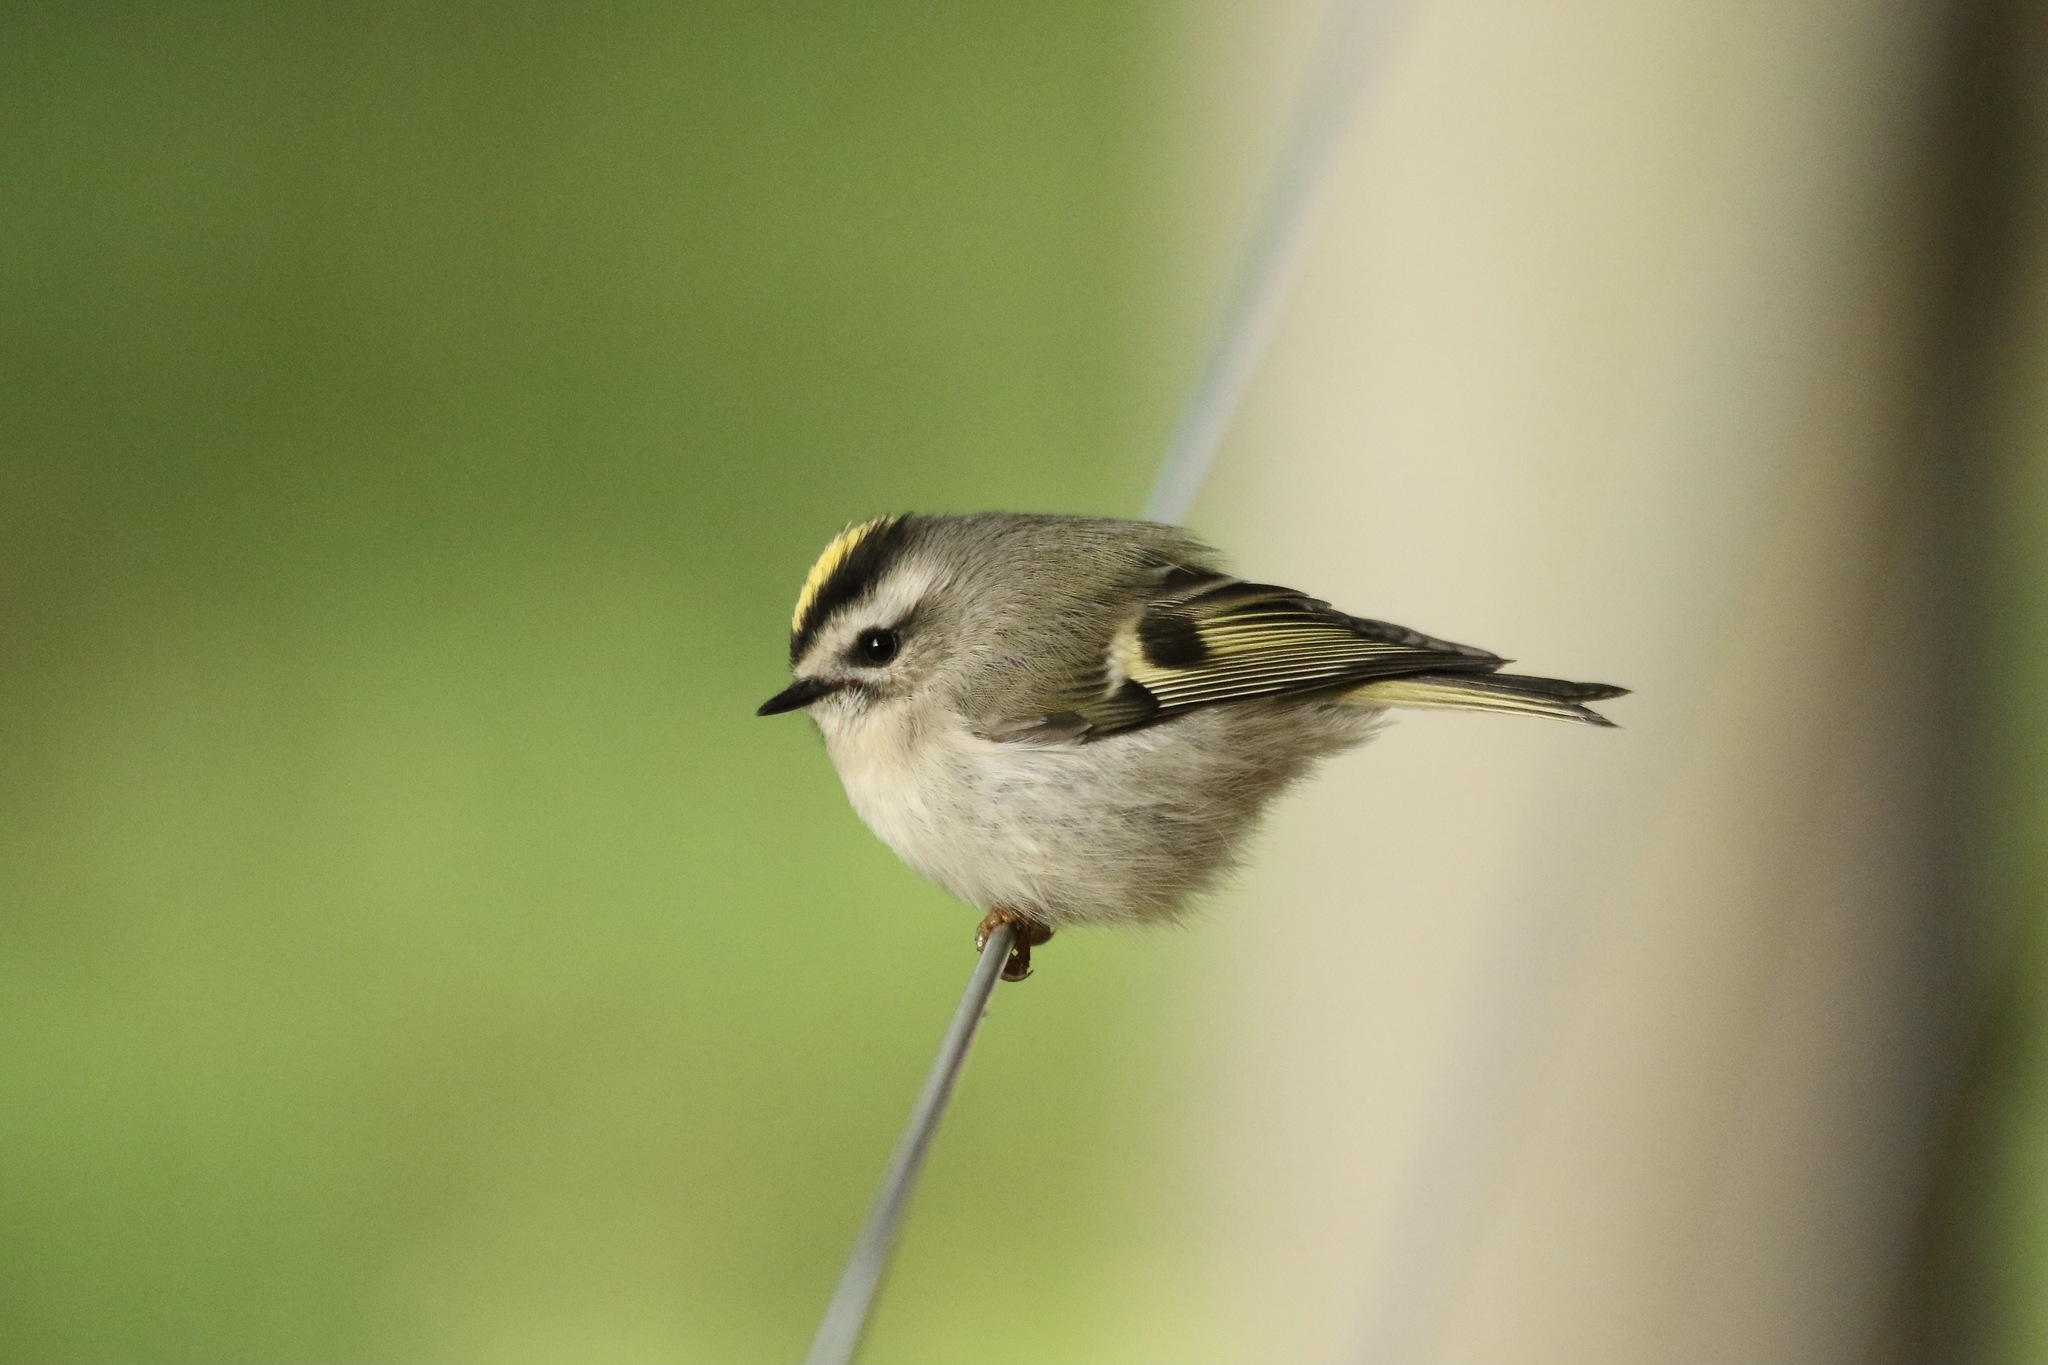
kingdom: Animalia
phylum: Chordata
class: Aves
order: Passeriformes
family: Regulidae
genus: Regulus
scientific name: Regulus satrapa
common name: Golden-crowned kinglet
